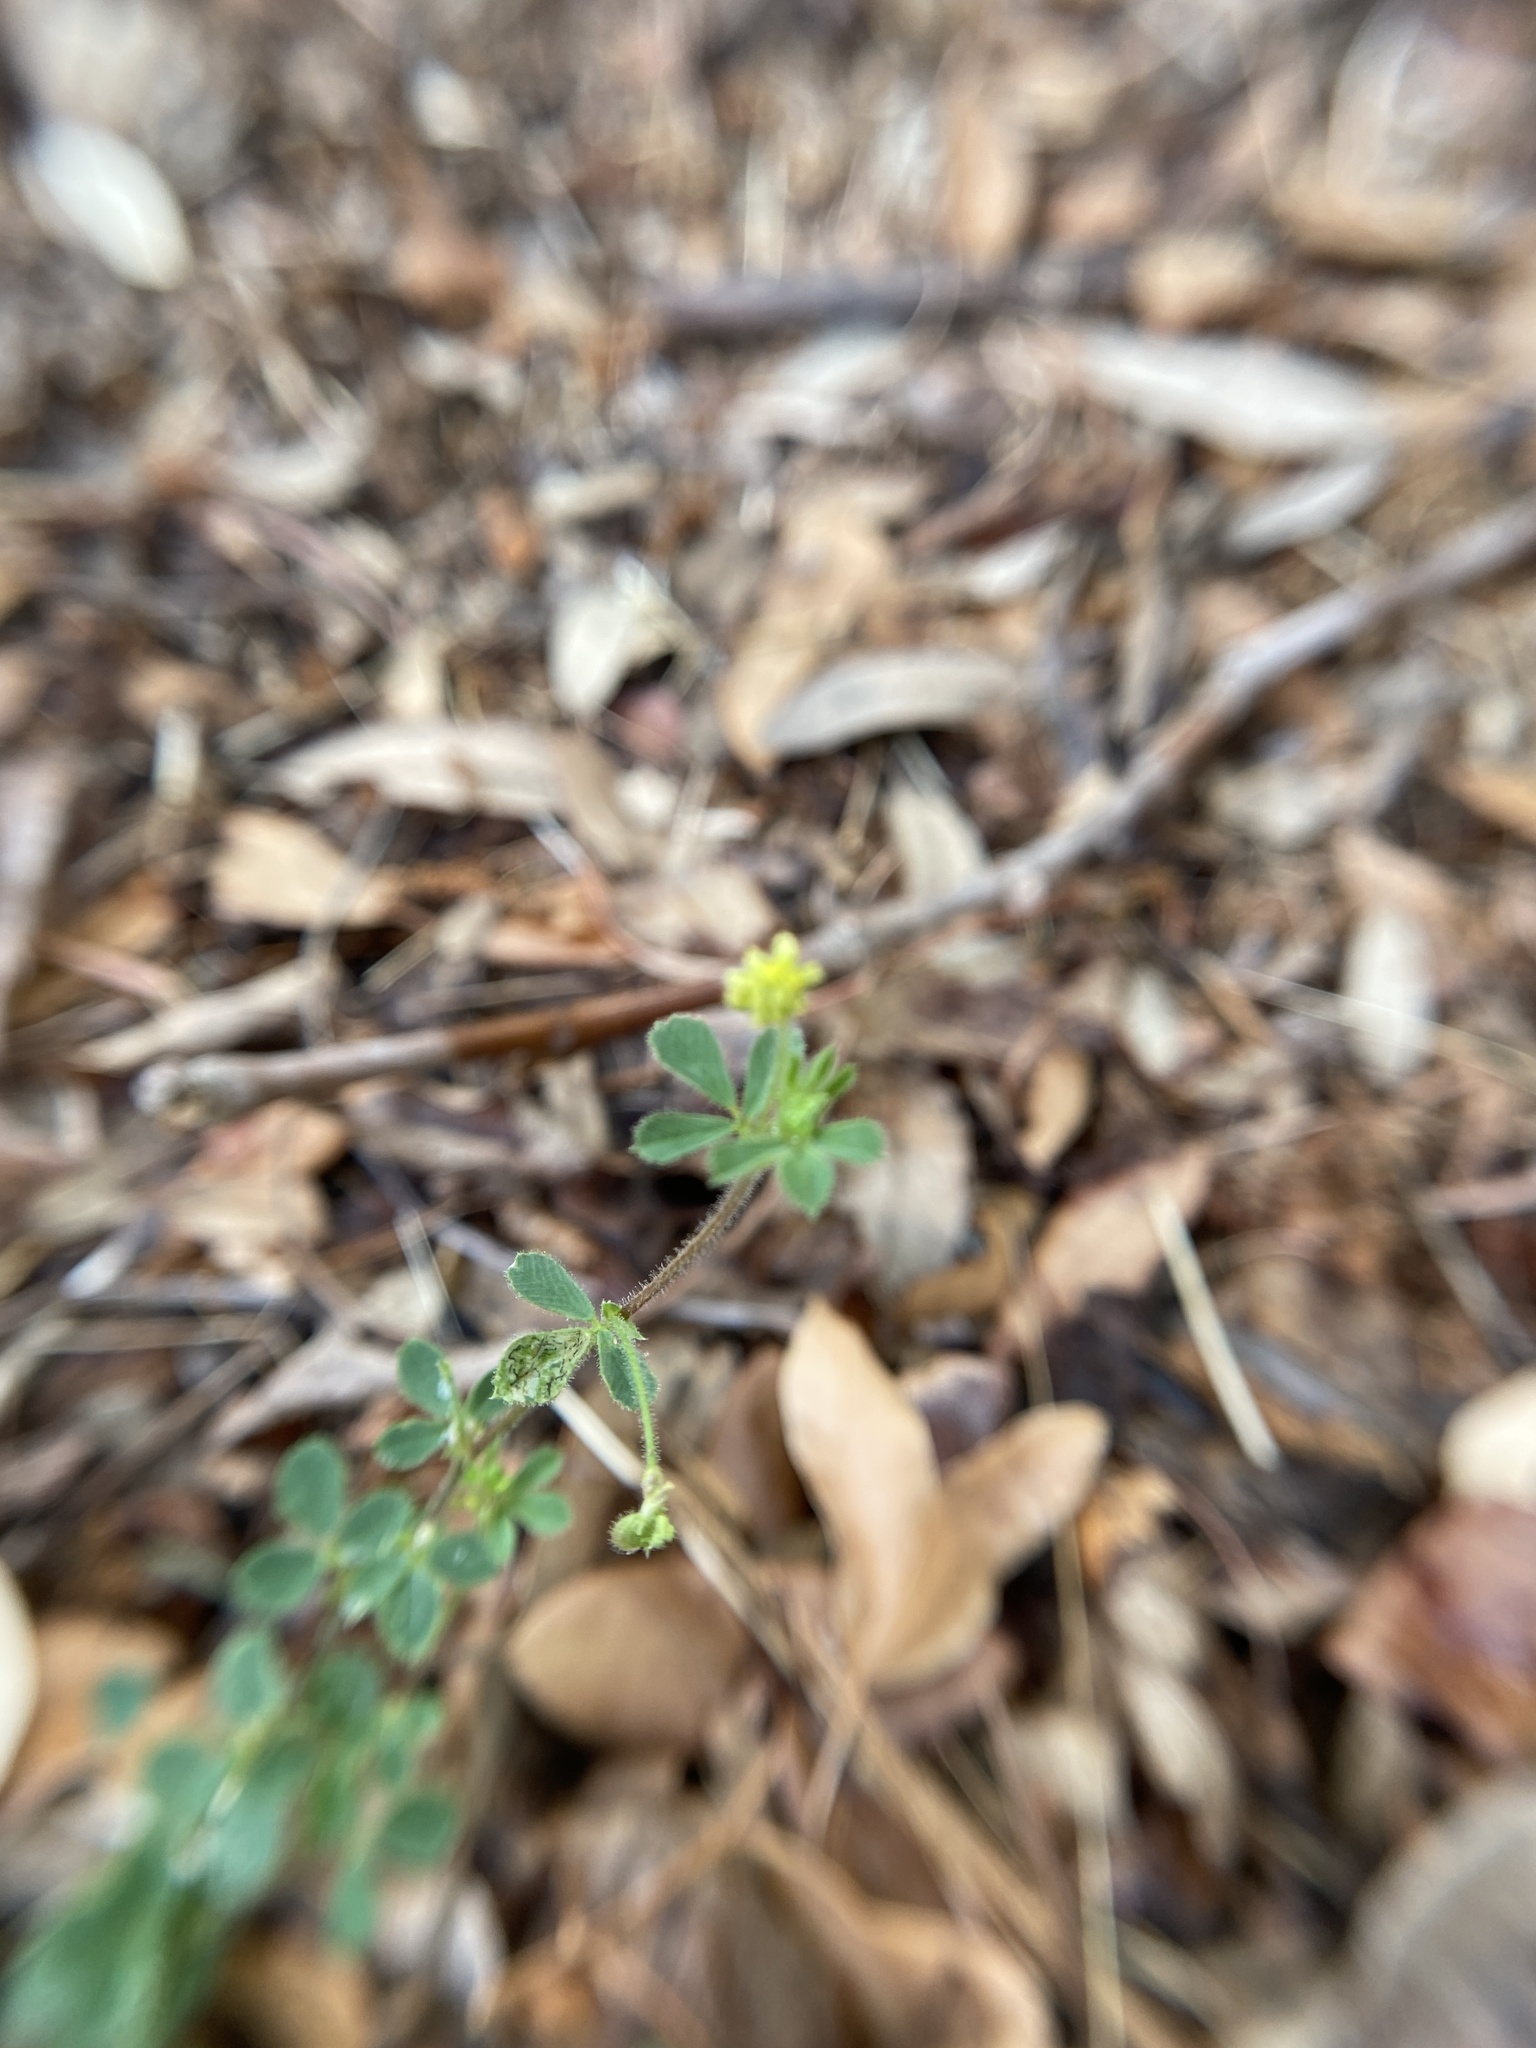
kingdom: Plantae
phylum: Tracheophyta
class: Magnoliopsida
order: Fabales
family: Fabaceae
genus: Medicago
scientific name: Medicago lupulina
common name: Black medick
